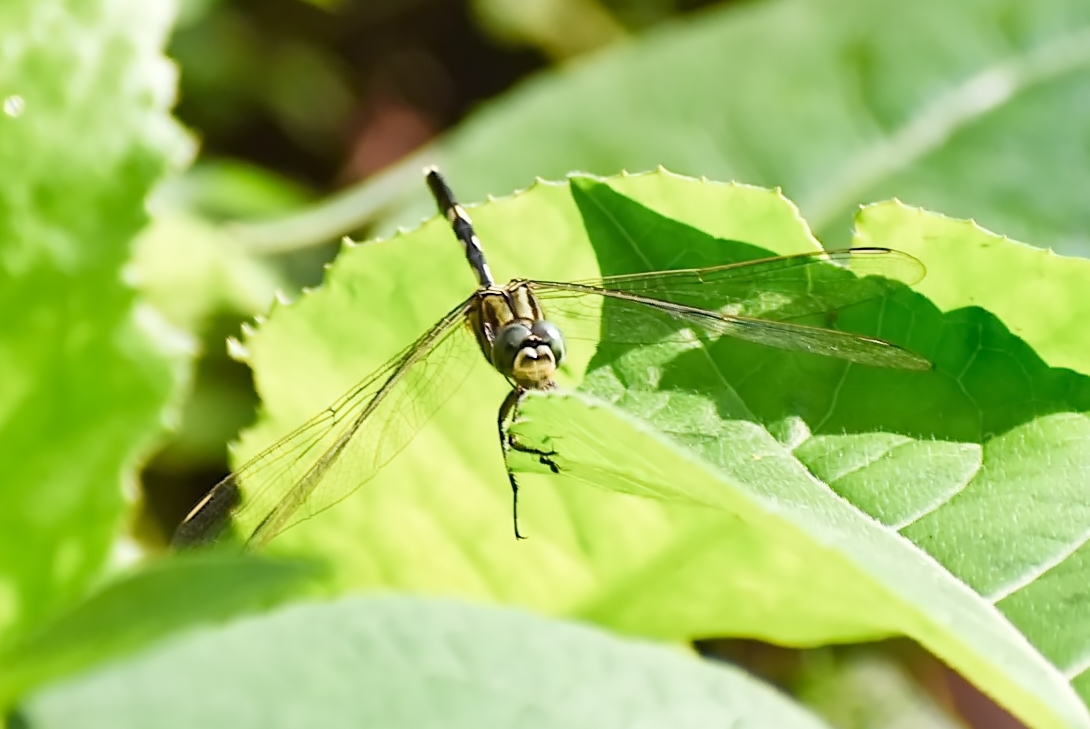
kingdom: Animalia
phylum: Arthropoda
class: Insecta
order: Odonata
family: Libellulidae
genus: Orthetrum
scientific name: Orthetrum sabina
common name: Slender skimmer
